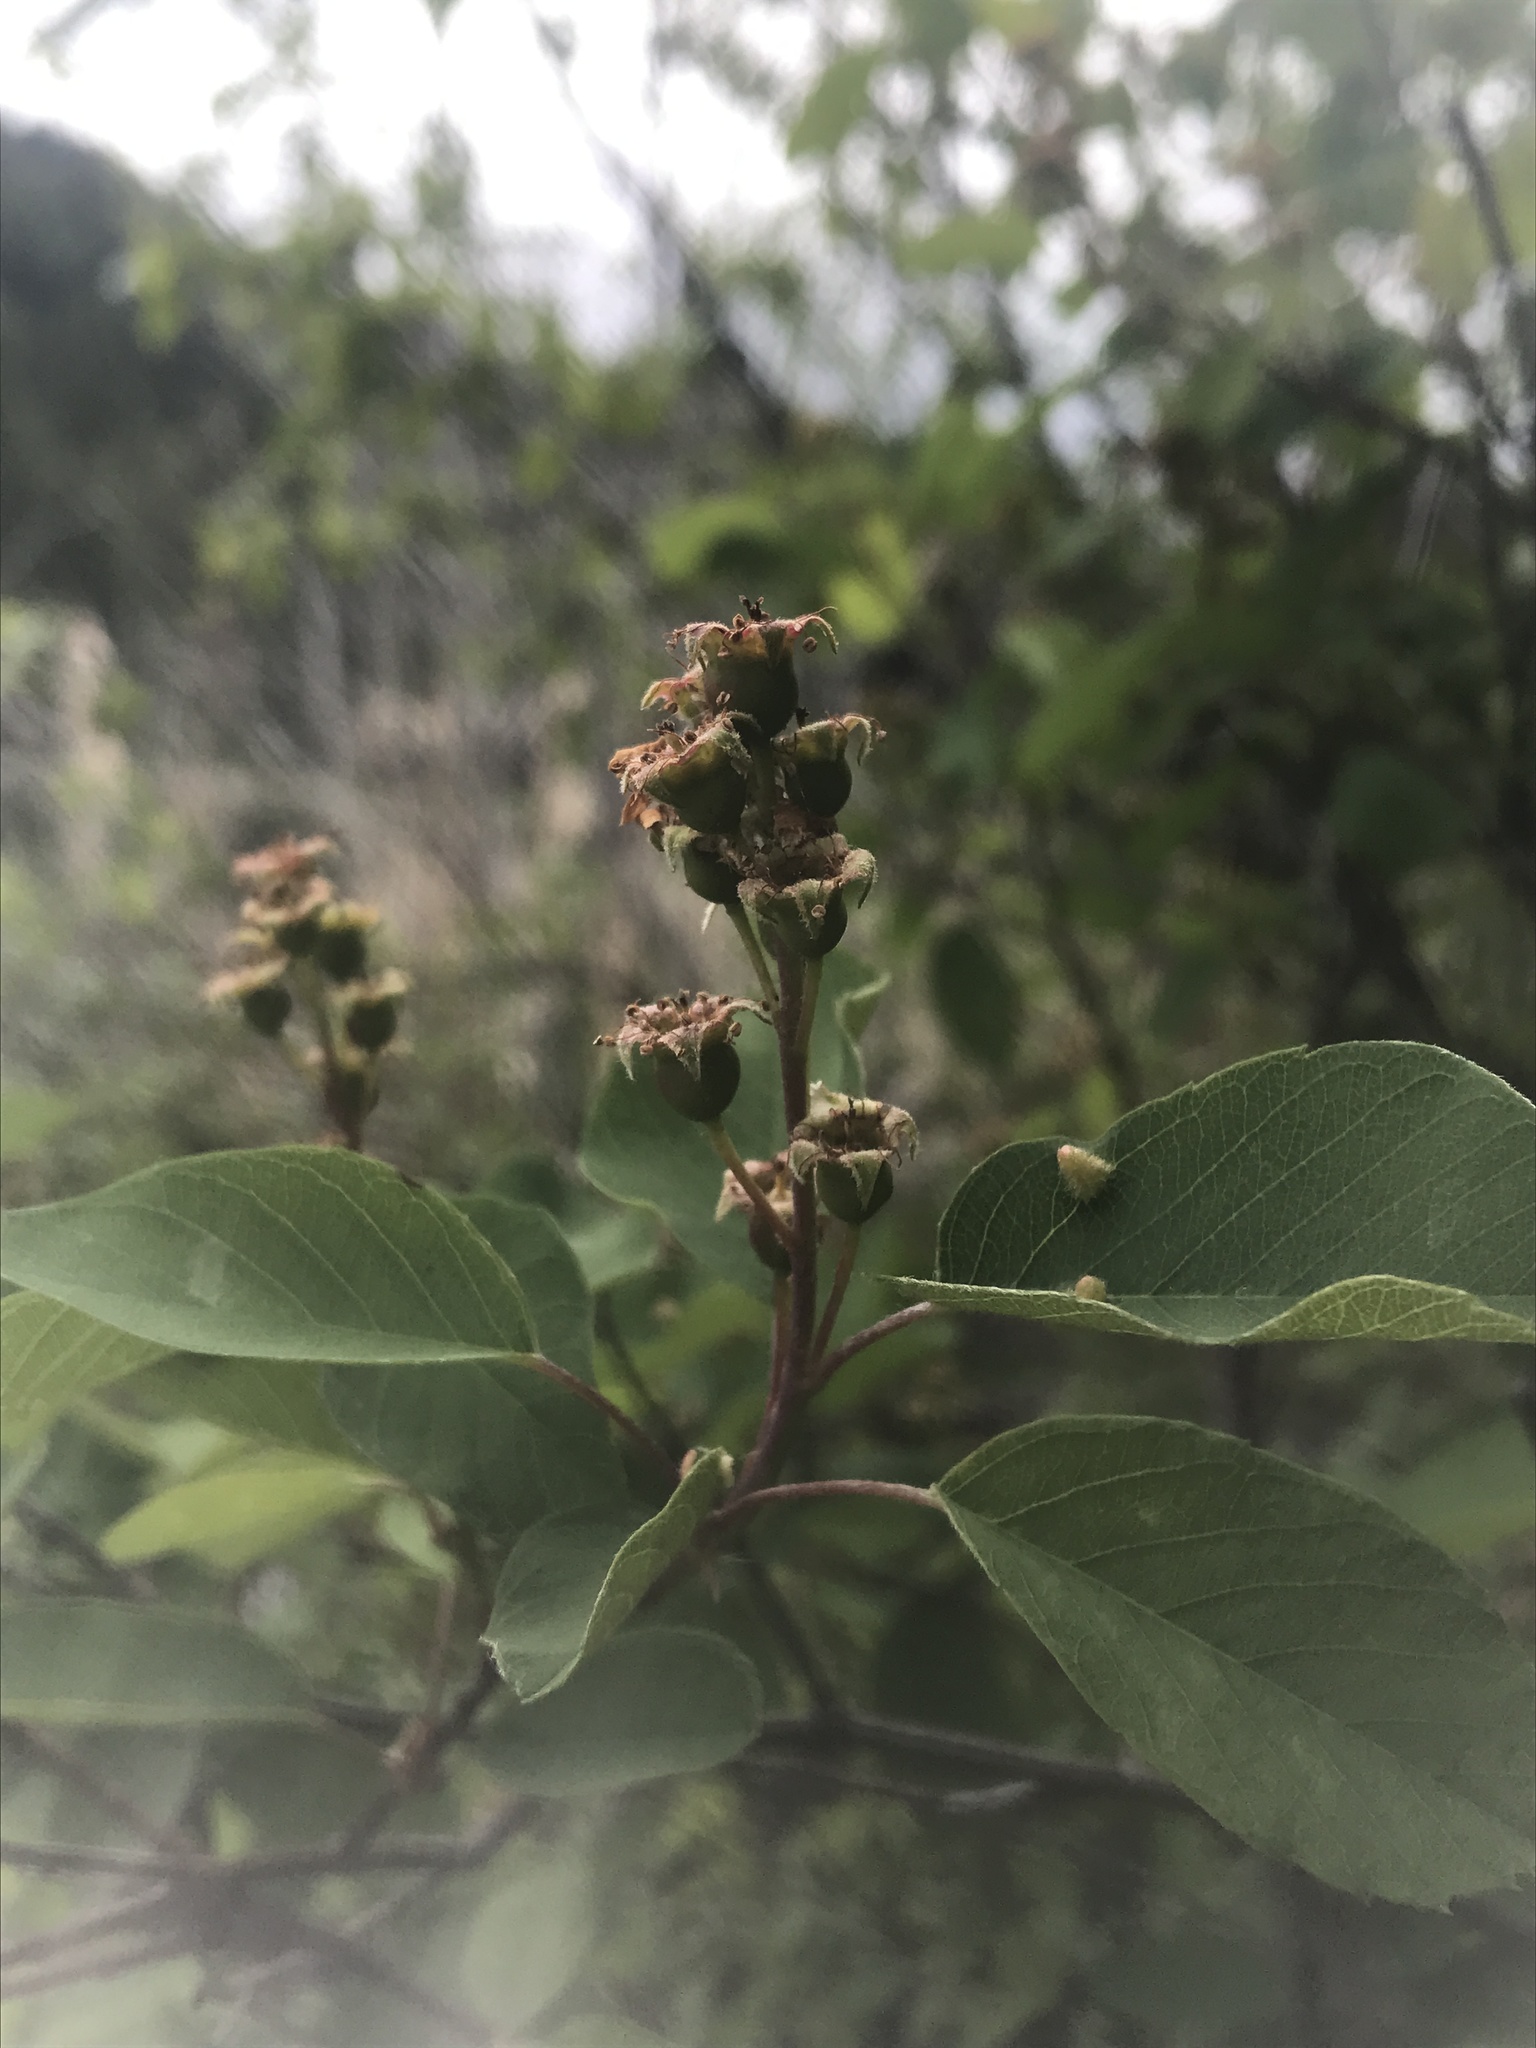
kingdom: Plantae
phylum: Tracheophyta
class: Magnoliopsida
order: Rosales
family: Rosaceae
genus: Amelanchier
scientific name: Amelanchier alnifolia
